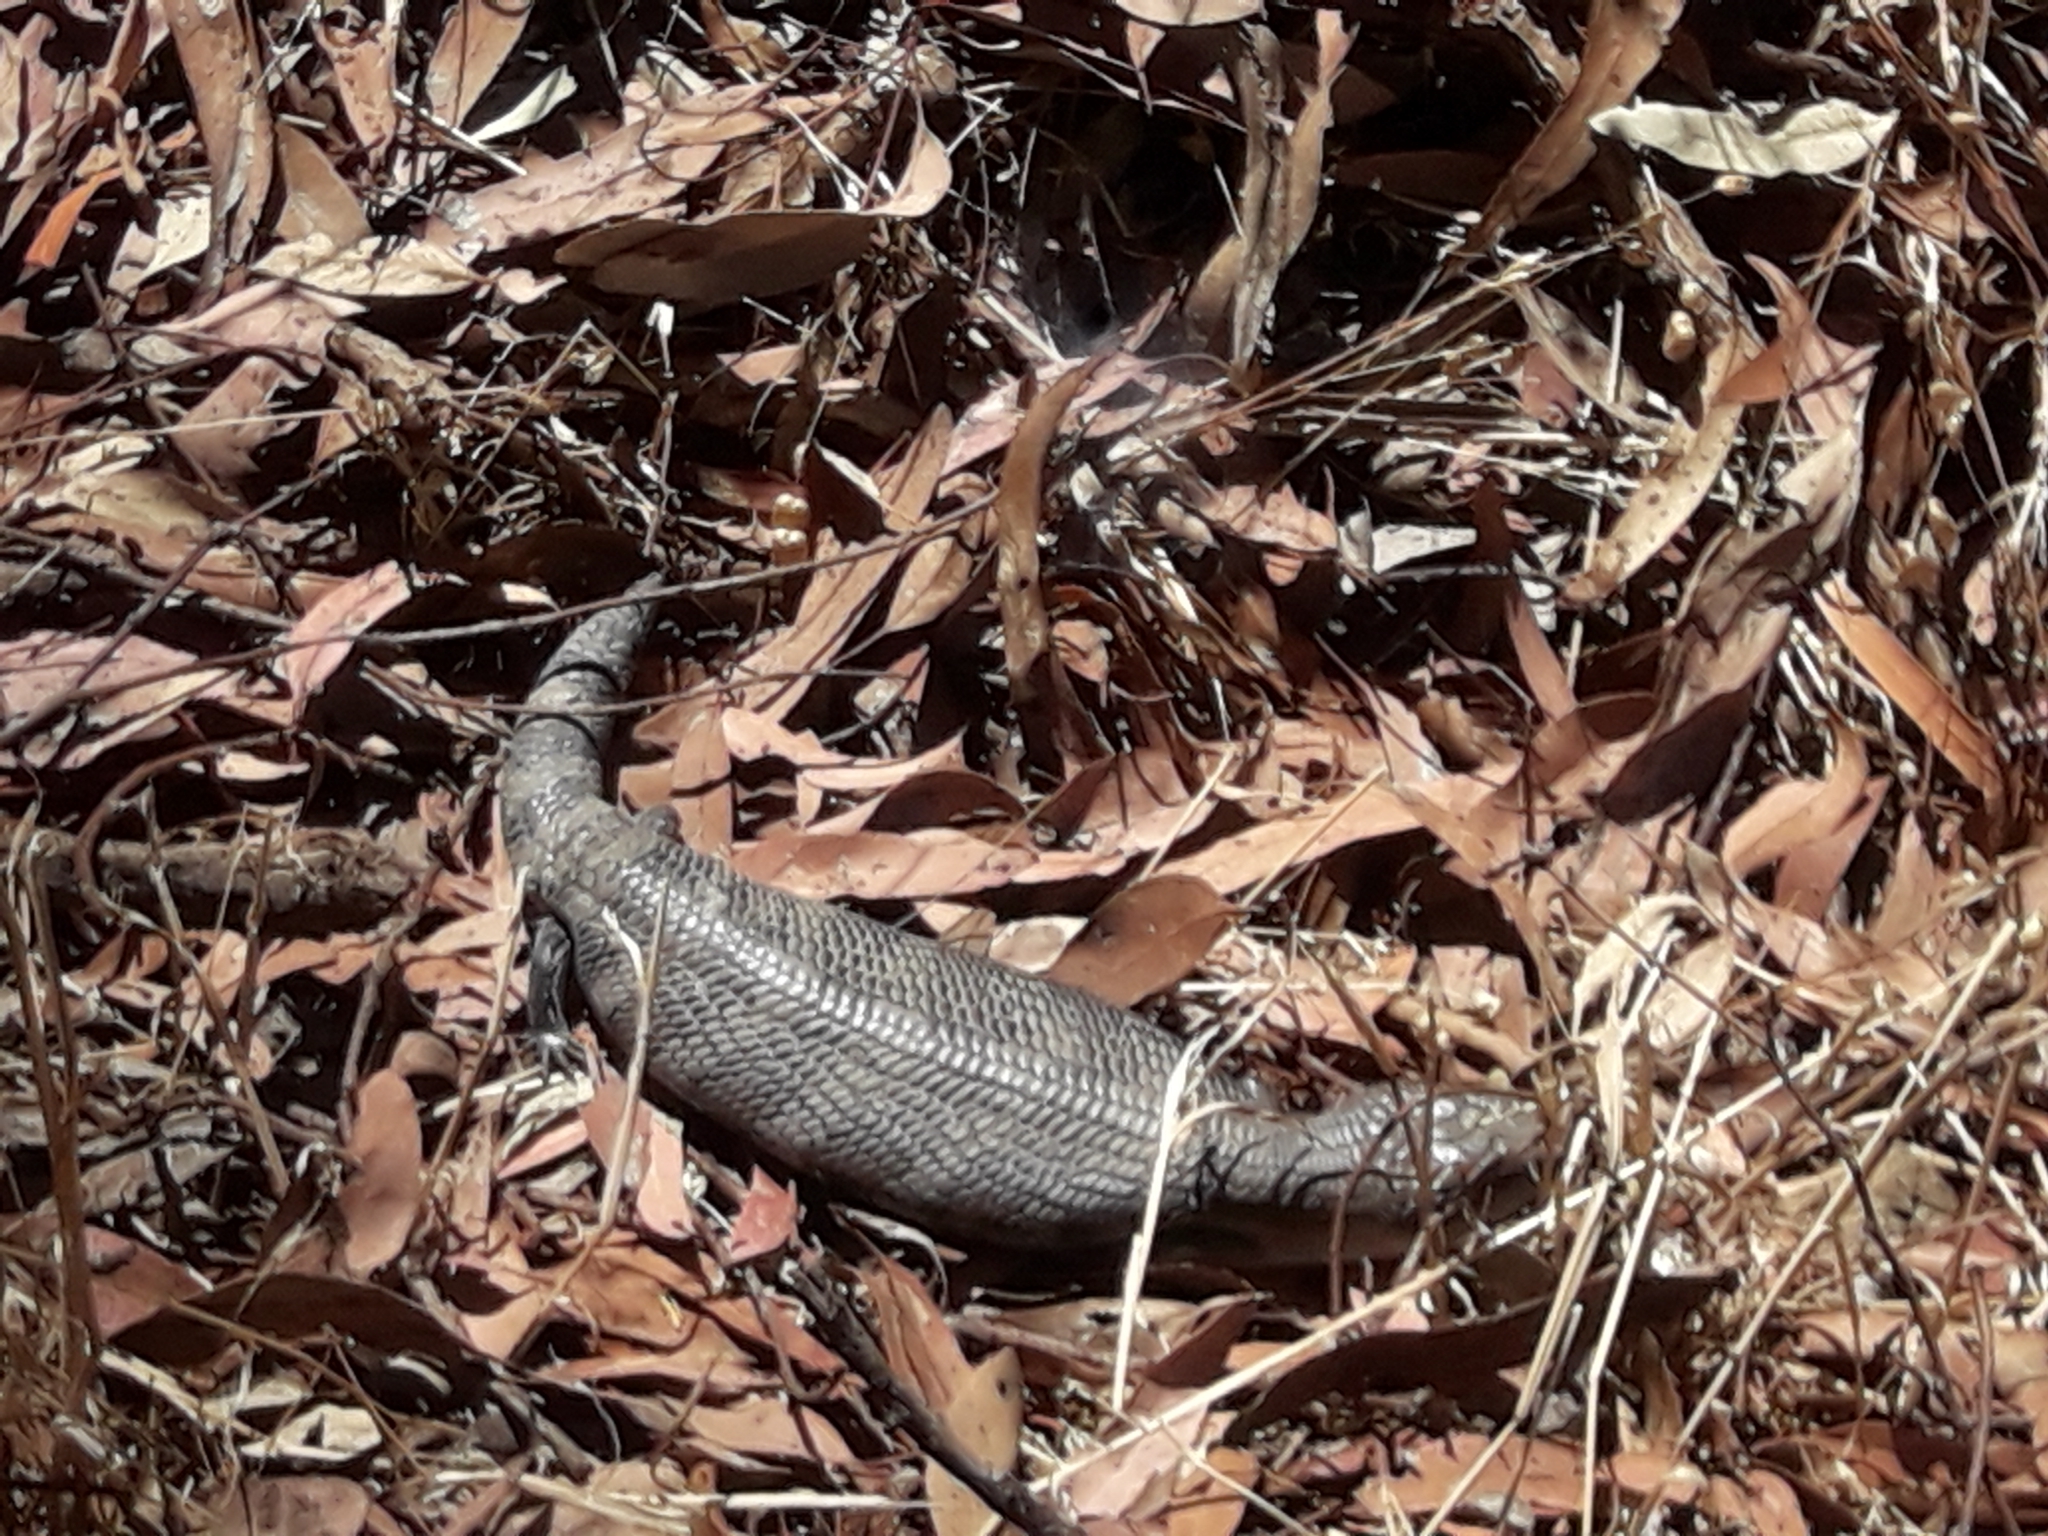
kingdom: Animalia
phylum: Chordata
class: Squamata
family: Scincidae
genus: Tiliqua
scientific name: Tiliqua scincoides
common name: Common bluetongue
